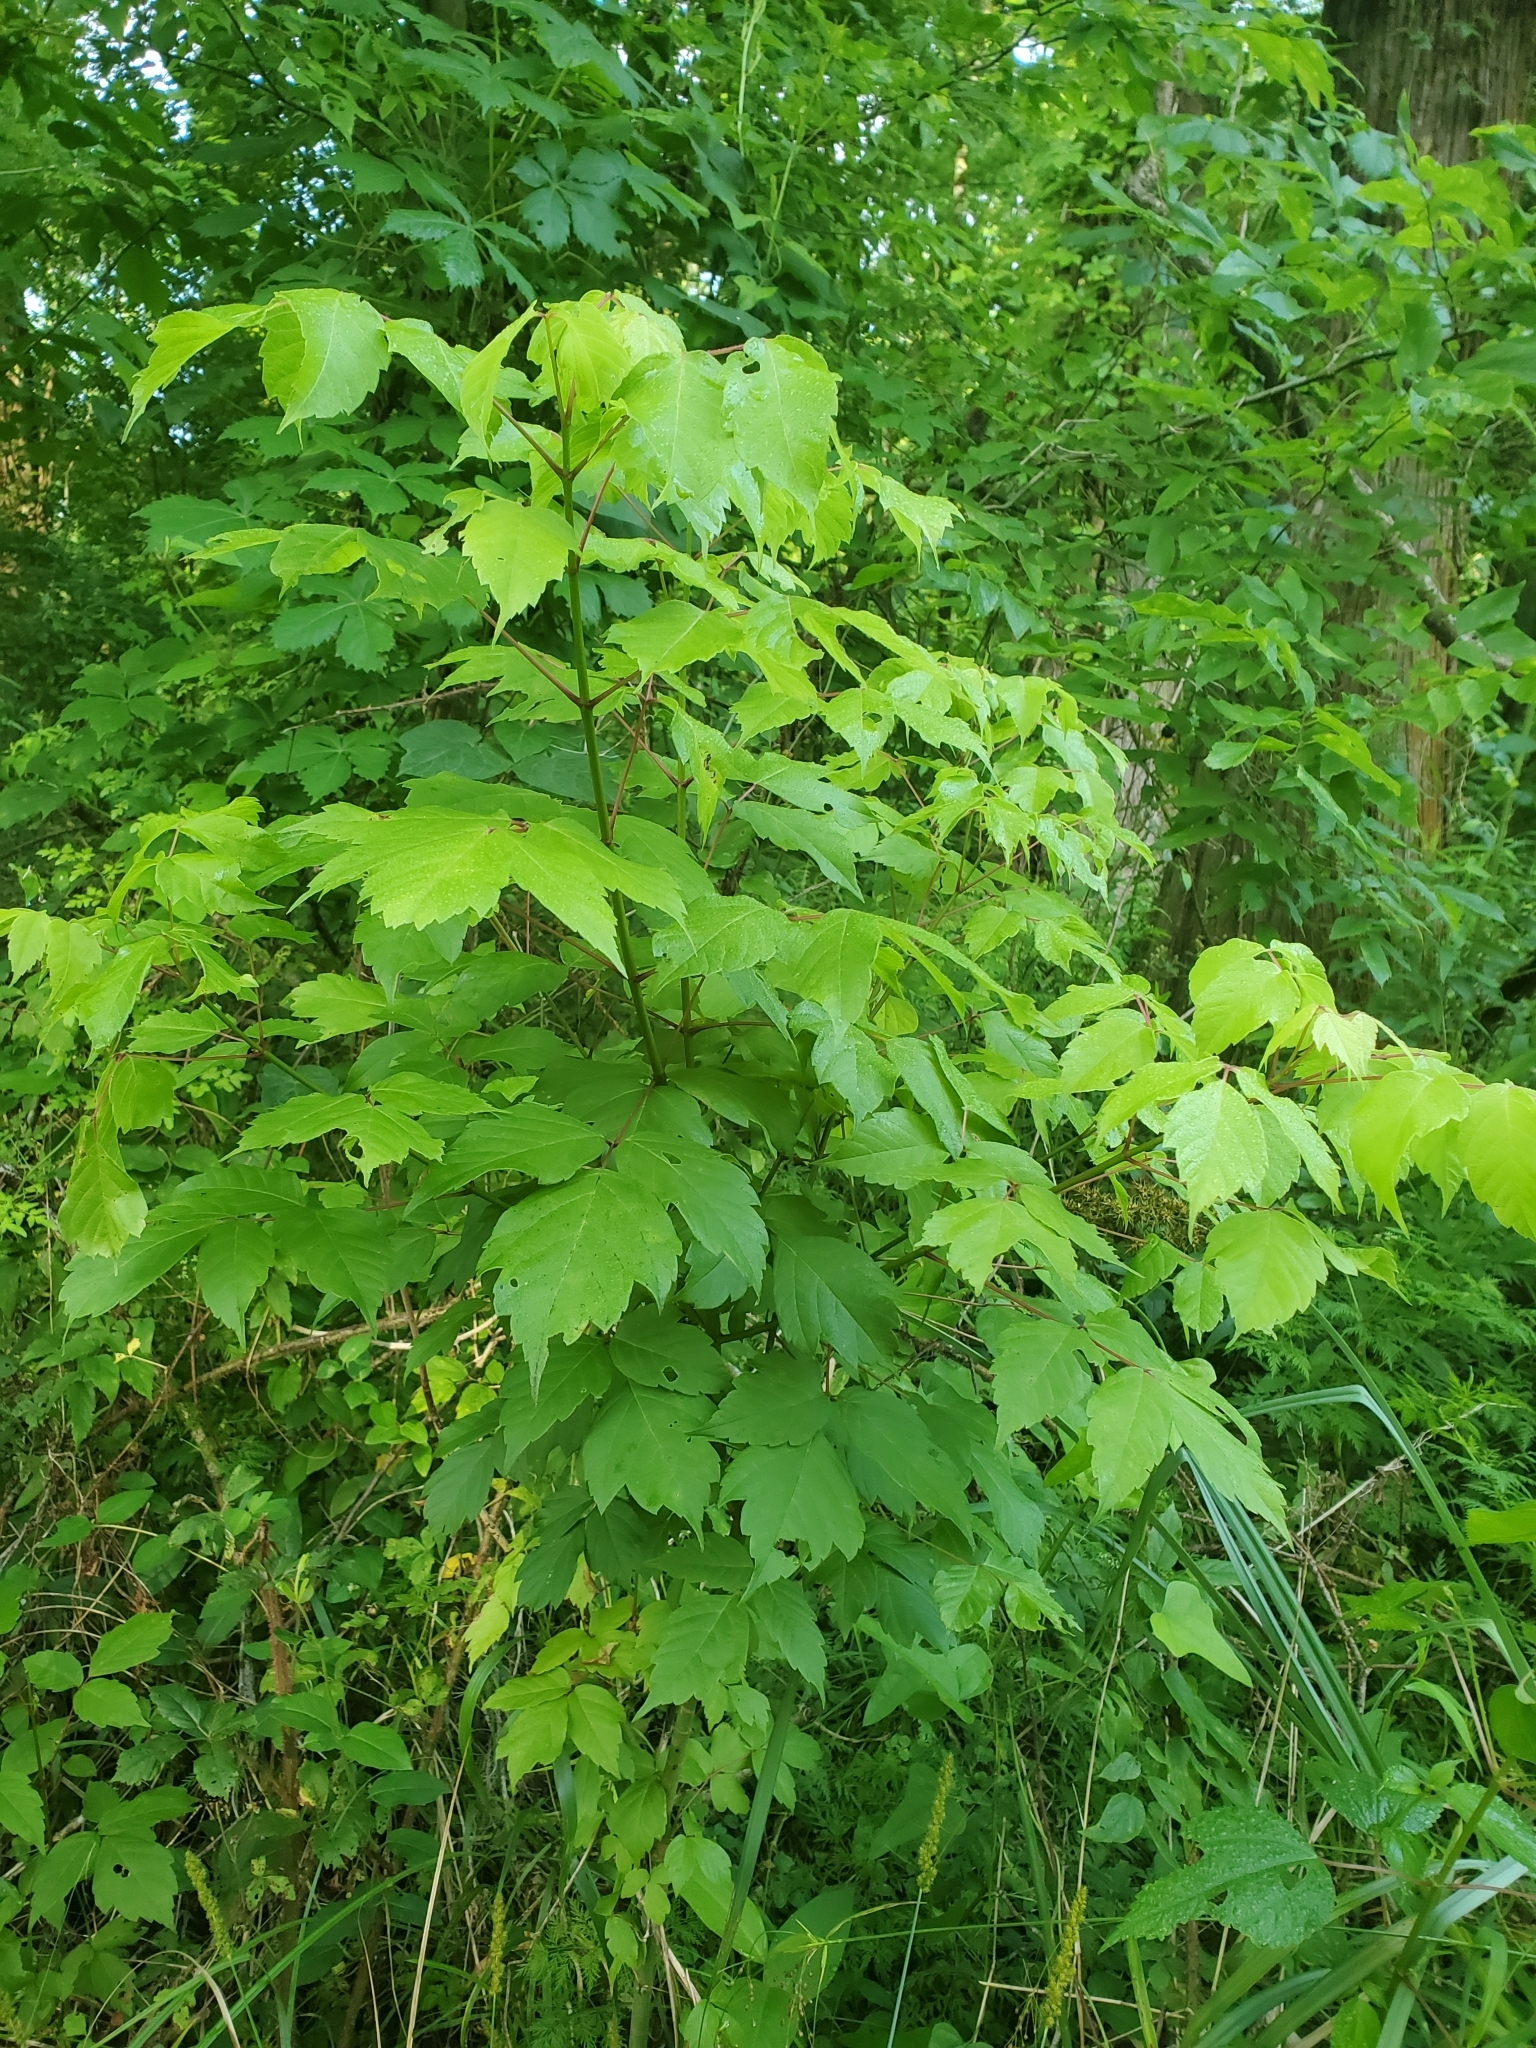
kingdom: Plantae
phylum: Tracheophyta
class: Magnoliopsida
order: Sapindales
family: Sapindaceae
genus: Acer
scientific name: Acer negundo
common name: Ashleaf maple
